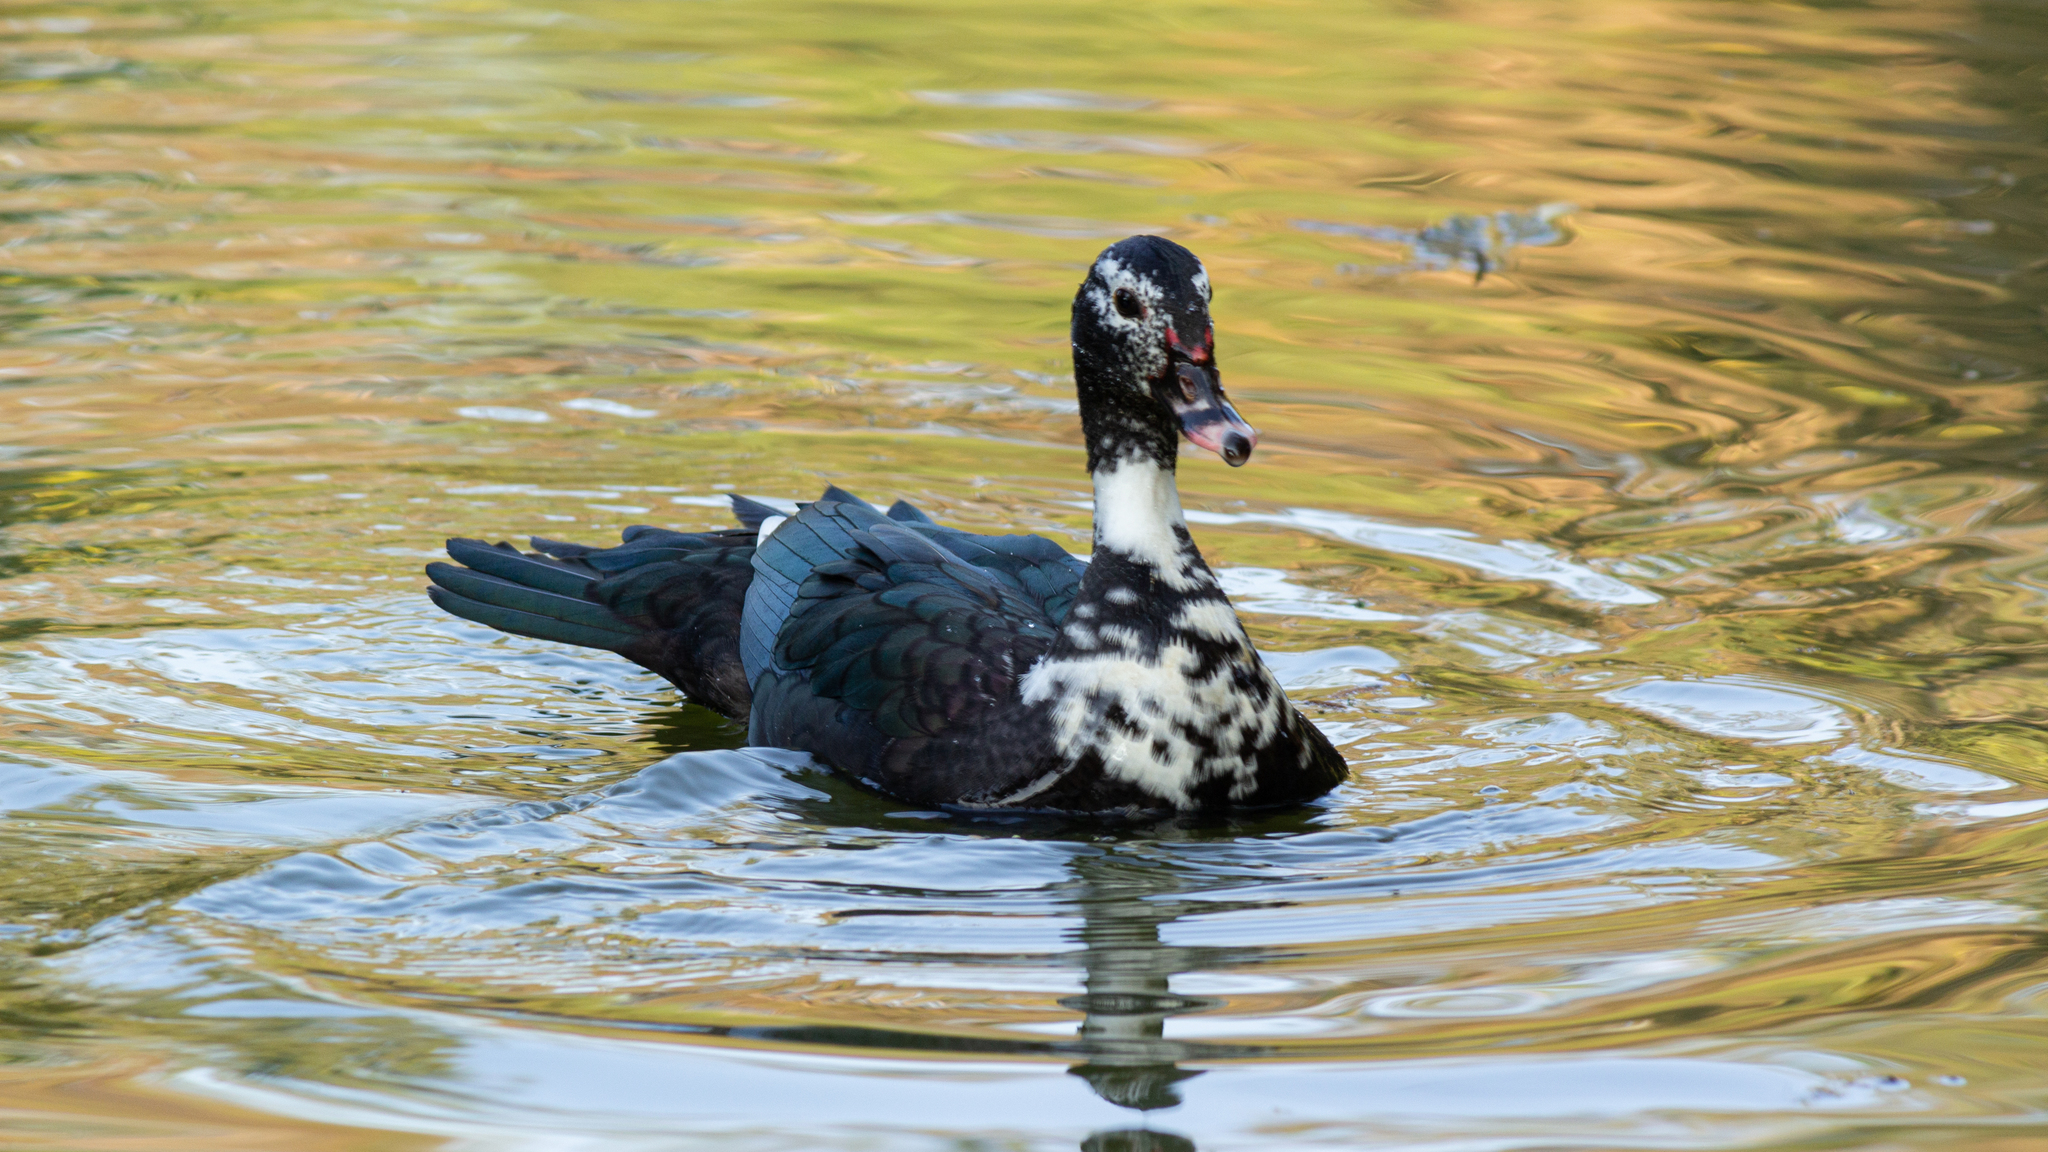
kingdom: Animalia
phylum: Chordata
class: Aves
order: Anseriformes
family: Anatidae
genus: Cairina
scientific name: Cairina moschata
